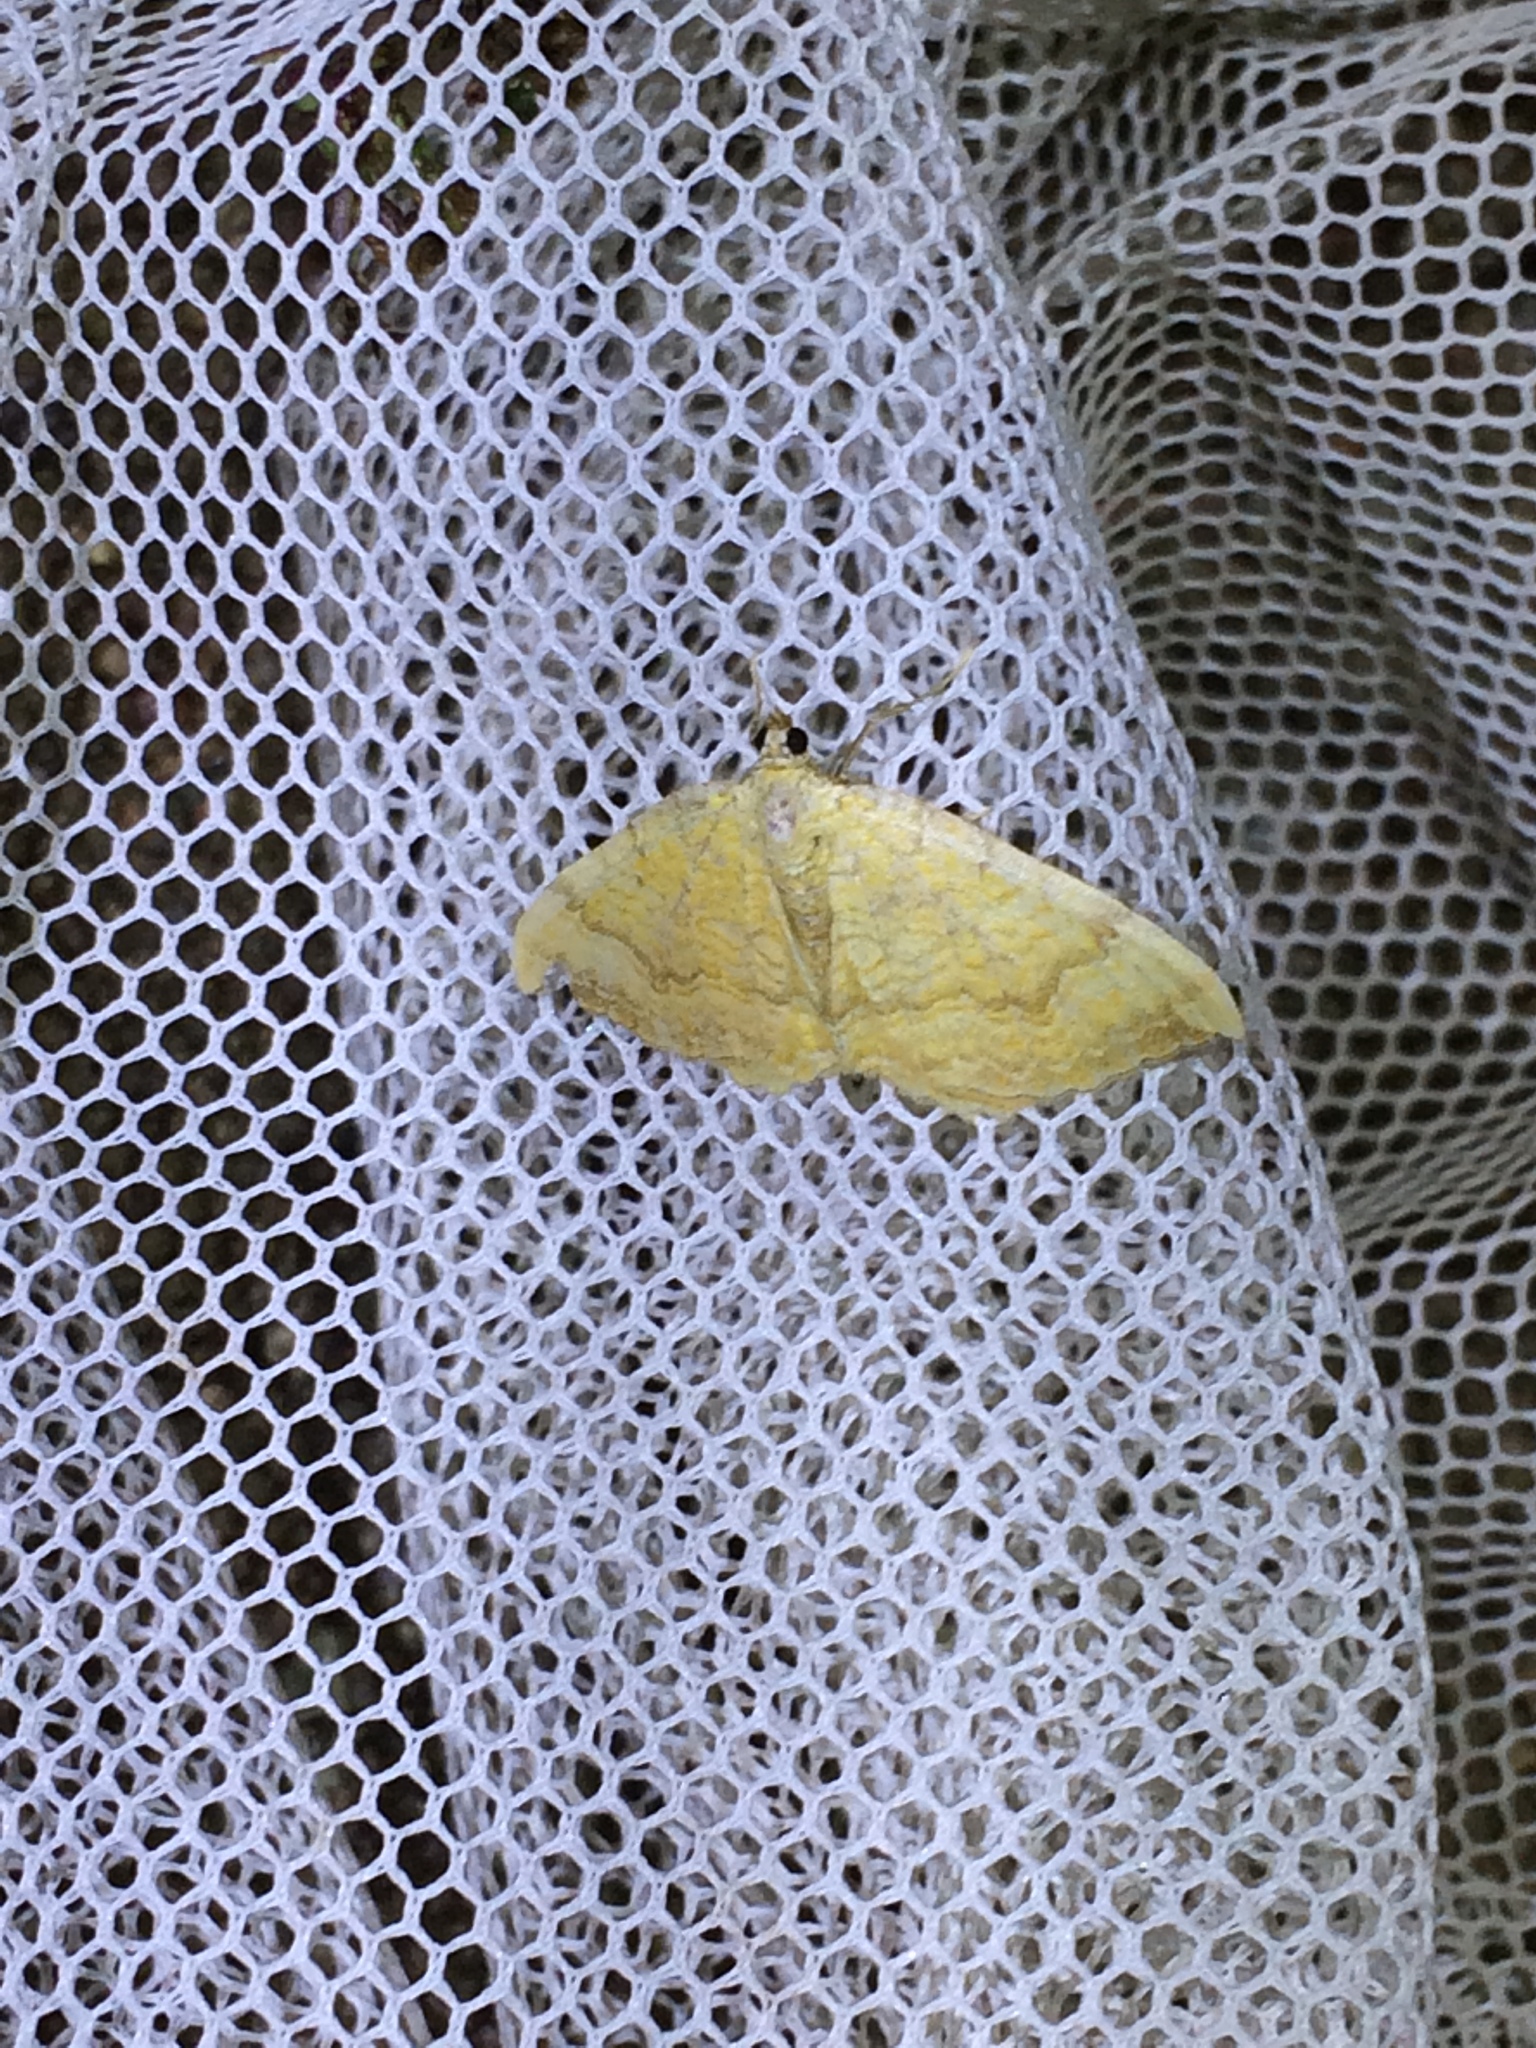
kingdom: Animalia
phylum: Arthropoda
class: Insecta
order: Lepidoptera
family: Geometridae
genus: Camptogramma
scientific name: Camptogramma bilineata
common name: Yellow shell
